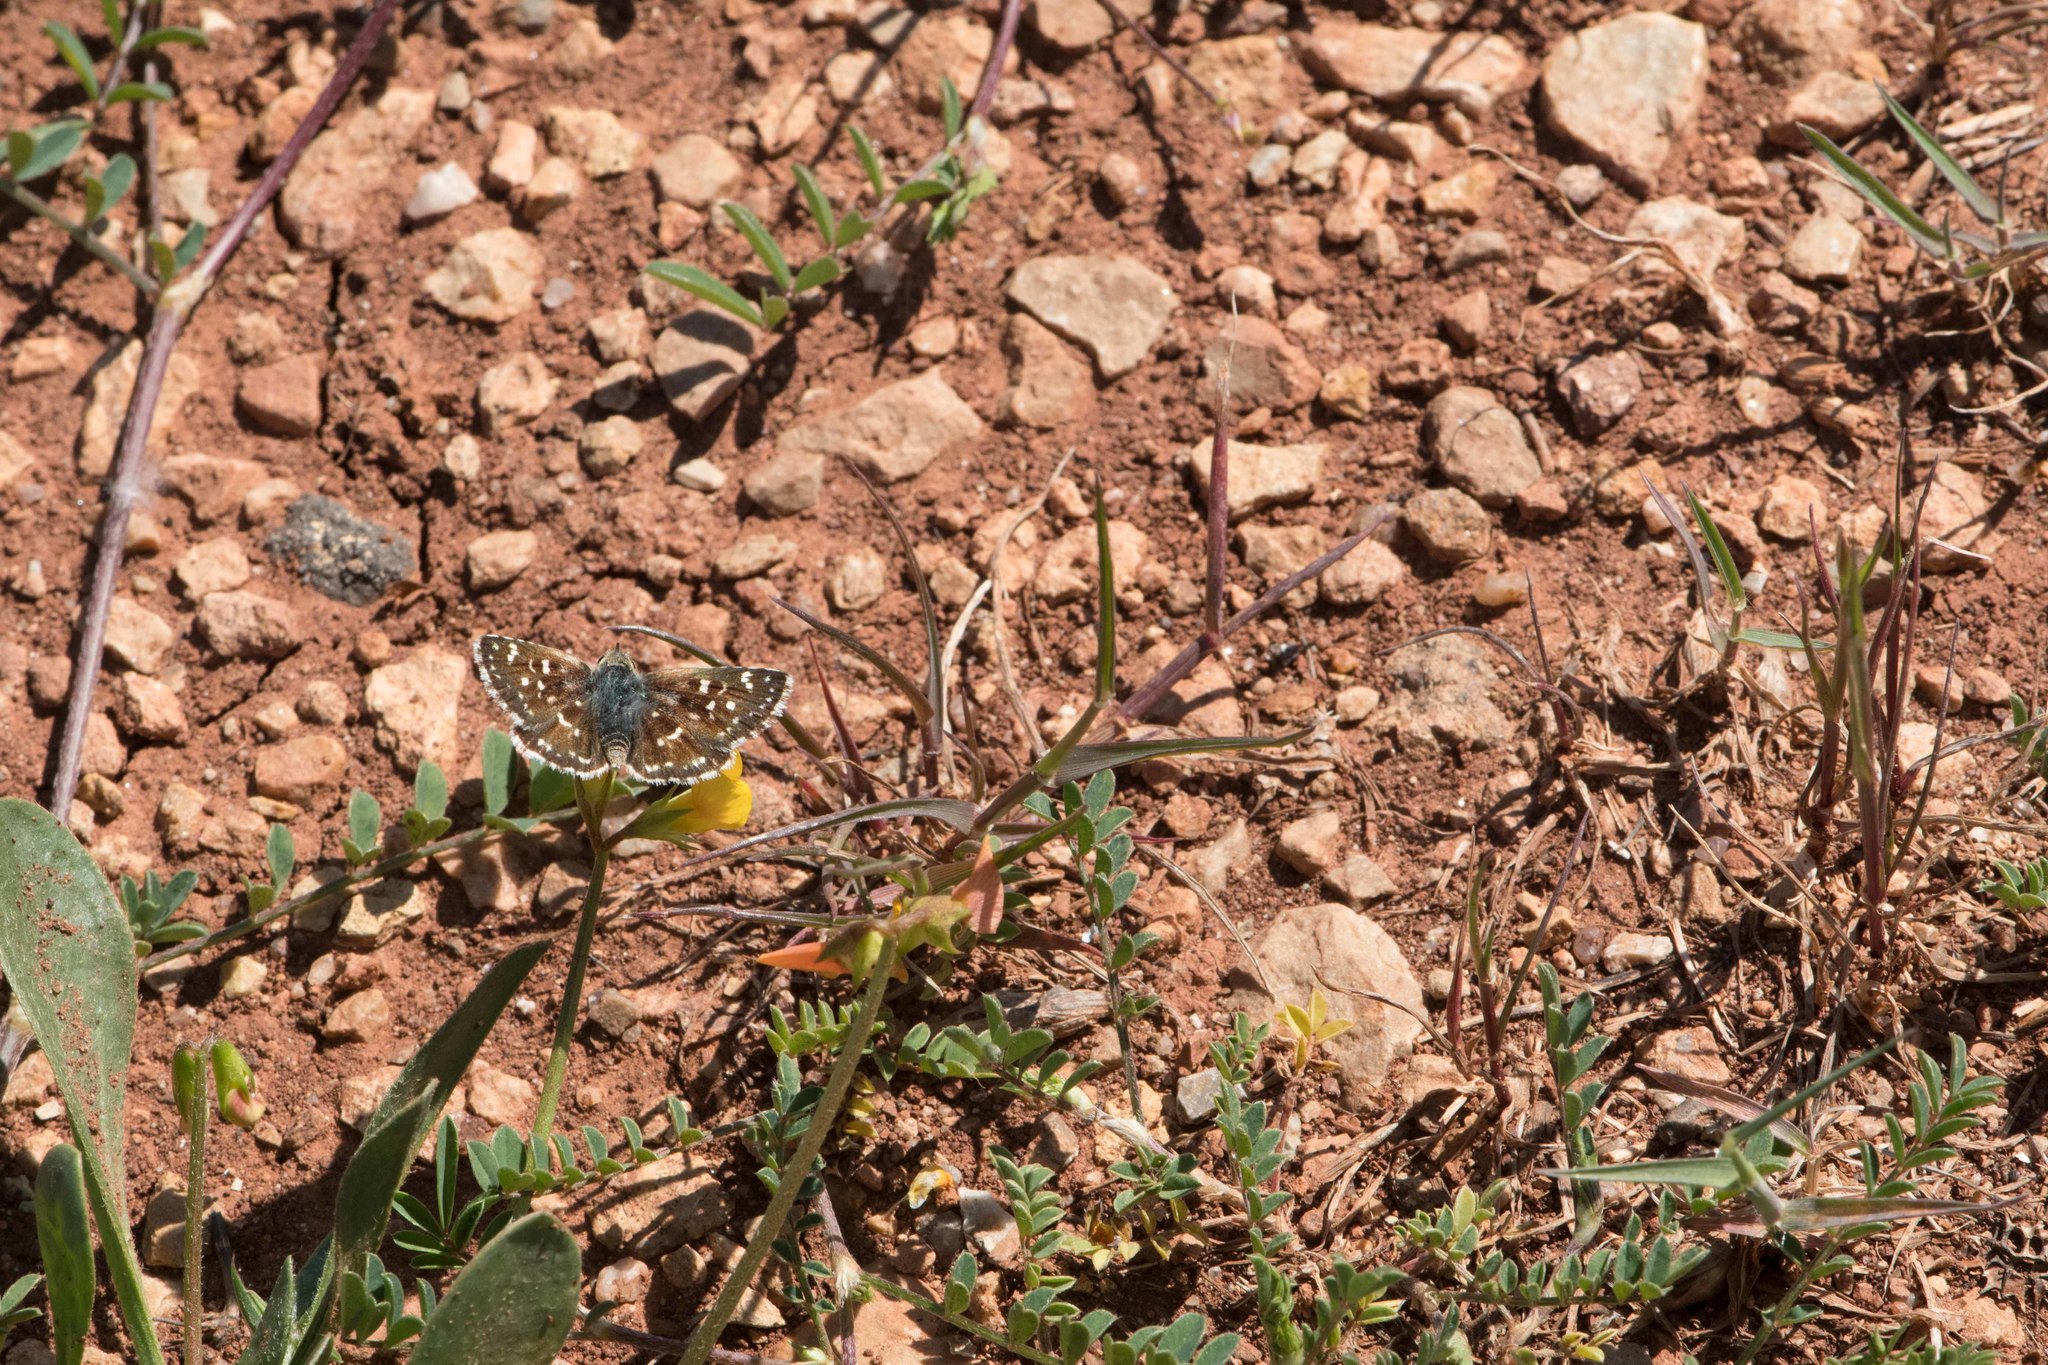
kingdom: Animalia
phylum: Arthropoda
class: Insecta
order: Lepidoptera
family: Hesperiidae
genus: Spialia
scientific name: Spialia sertorius
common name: Red underwing skipper
